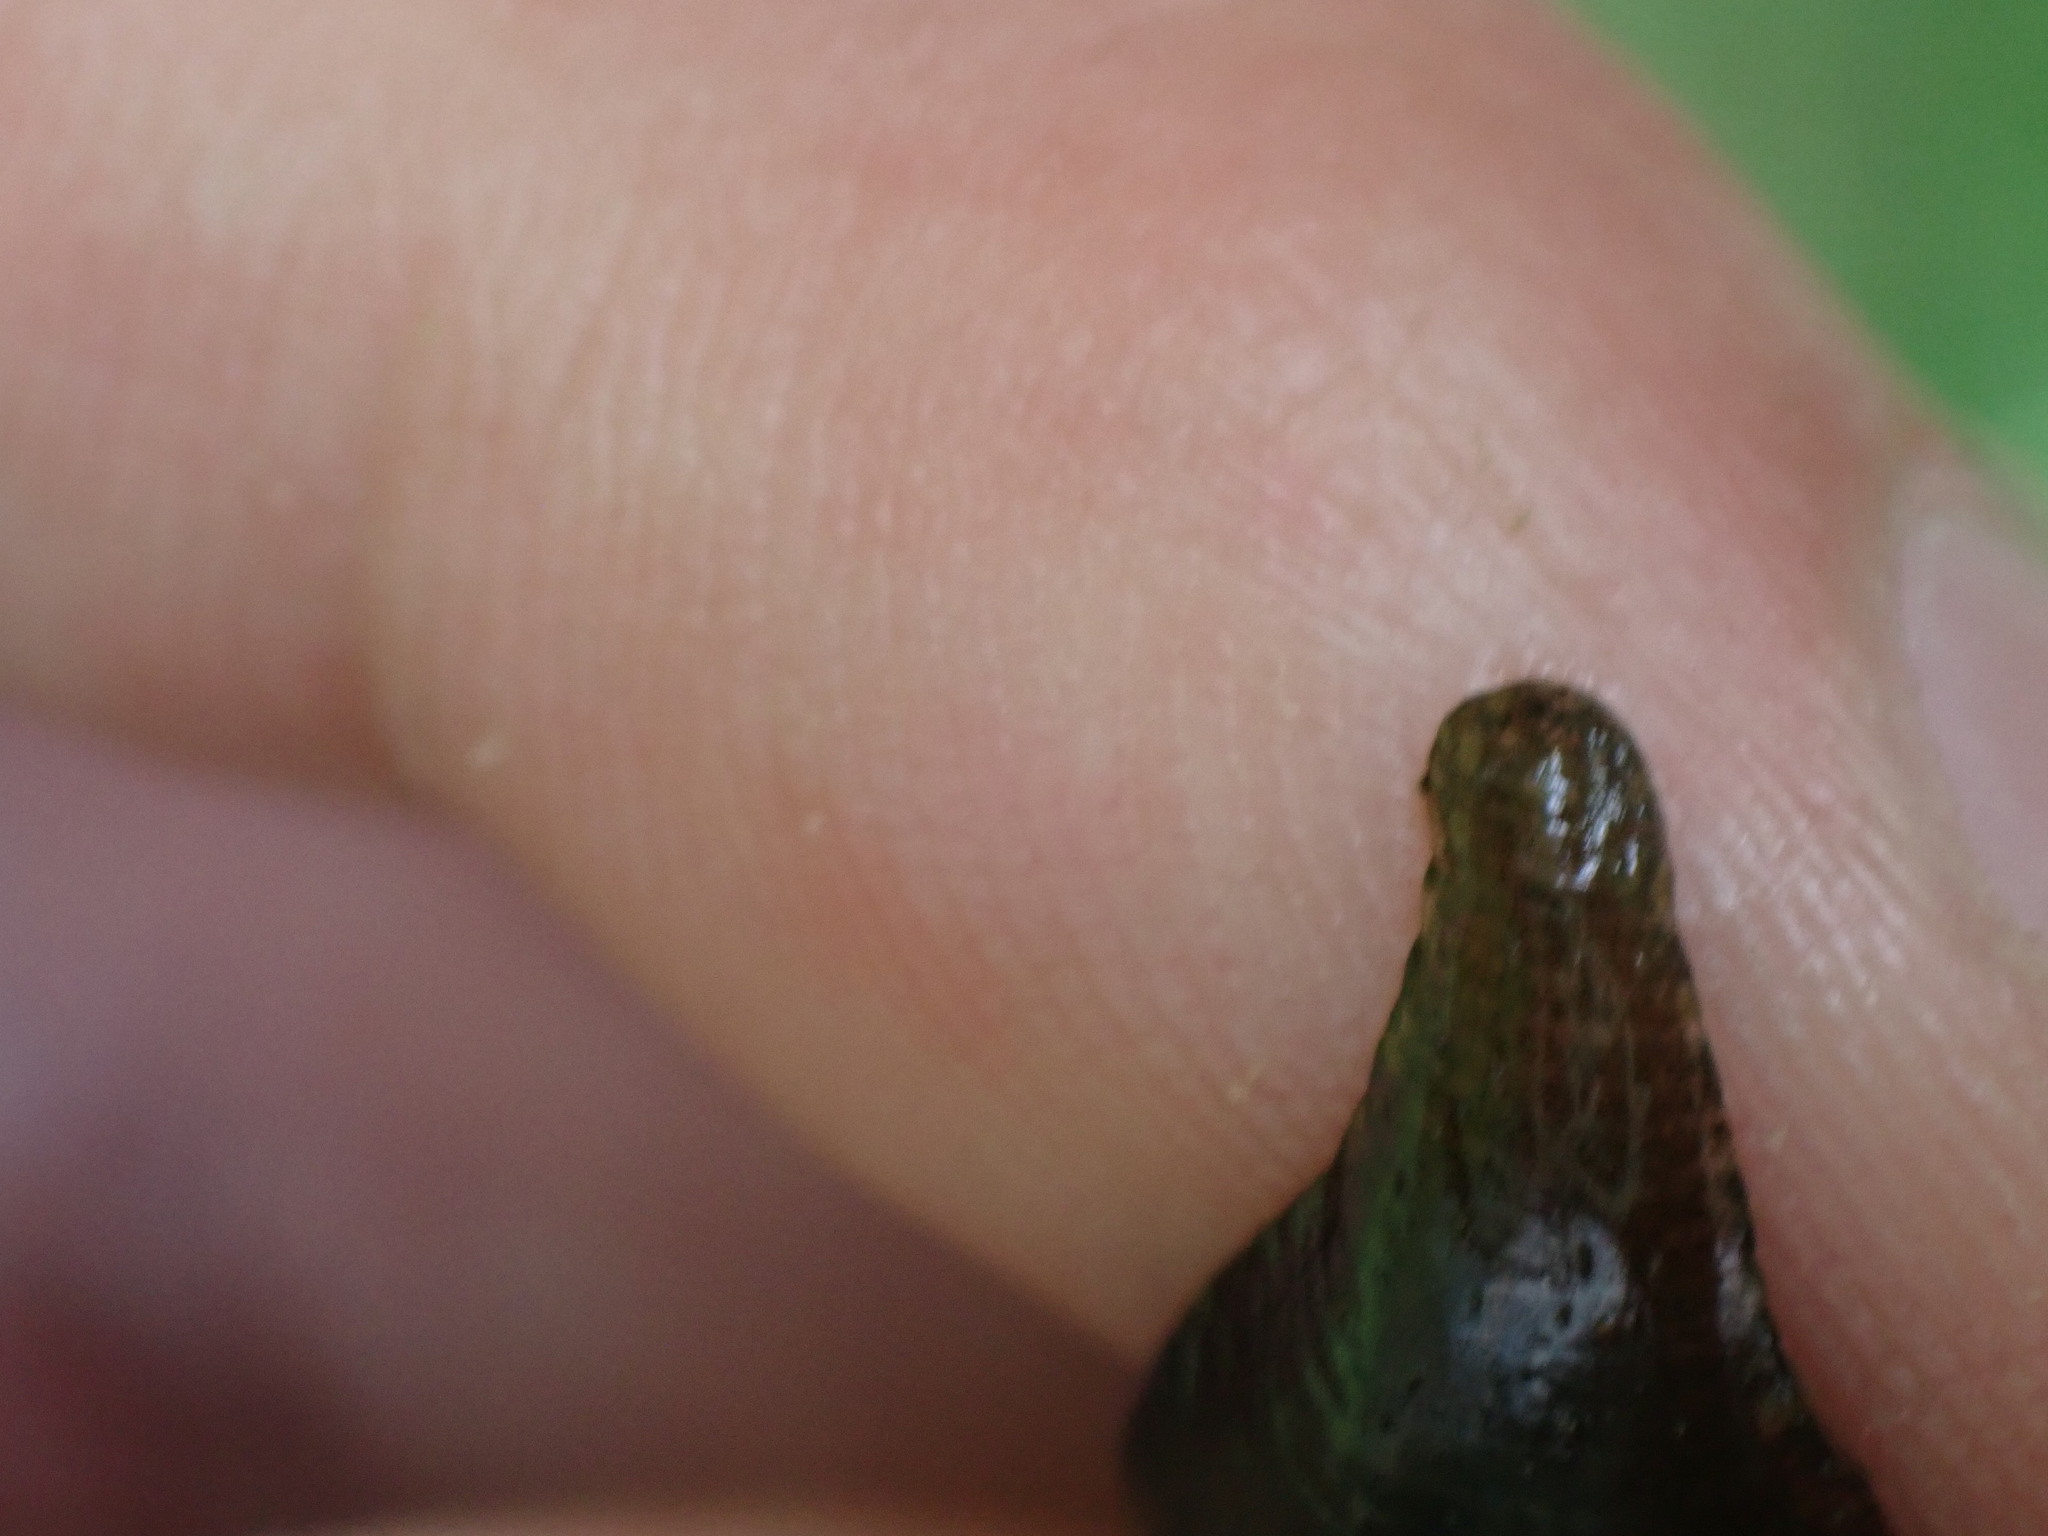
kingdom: Animalia
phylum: Annelida
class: Clitellata
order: Rhynchobdellida
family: Glossiphoniidae
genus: Hemiclepsis
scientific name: Hemiclepsis marginata
